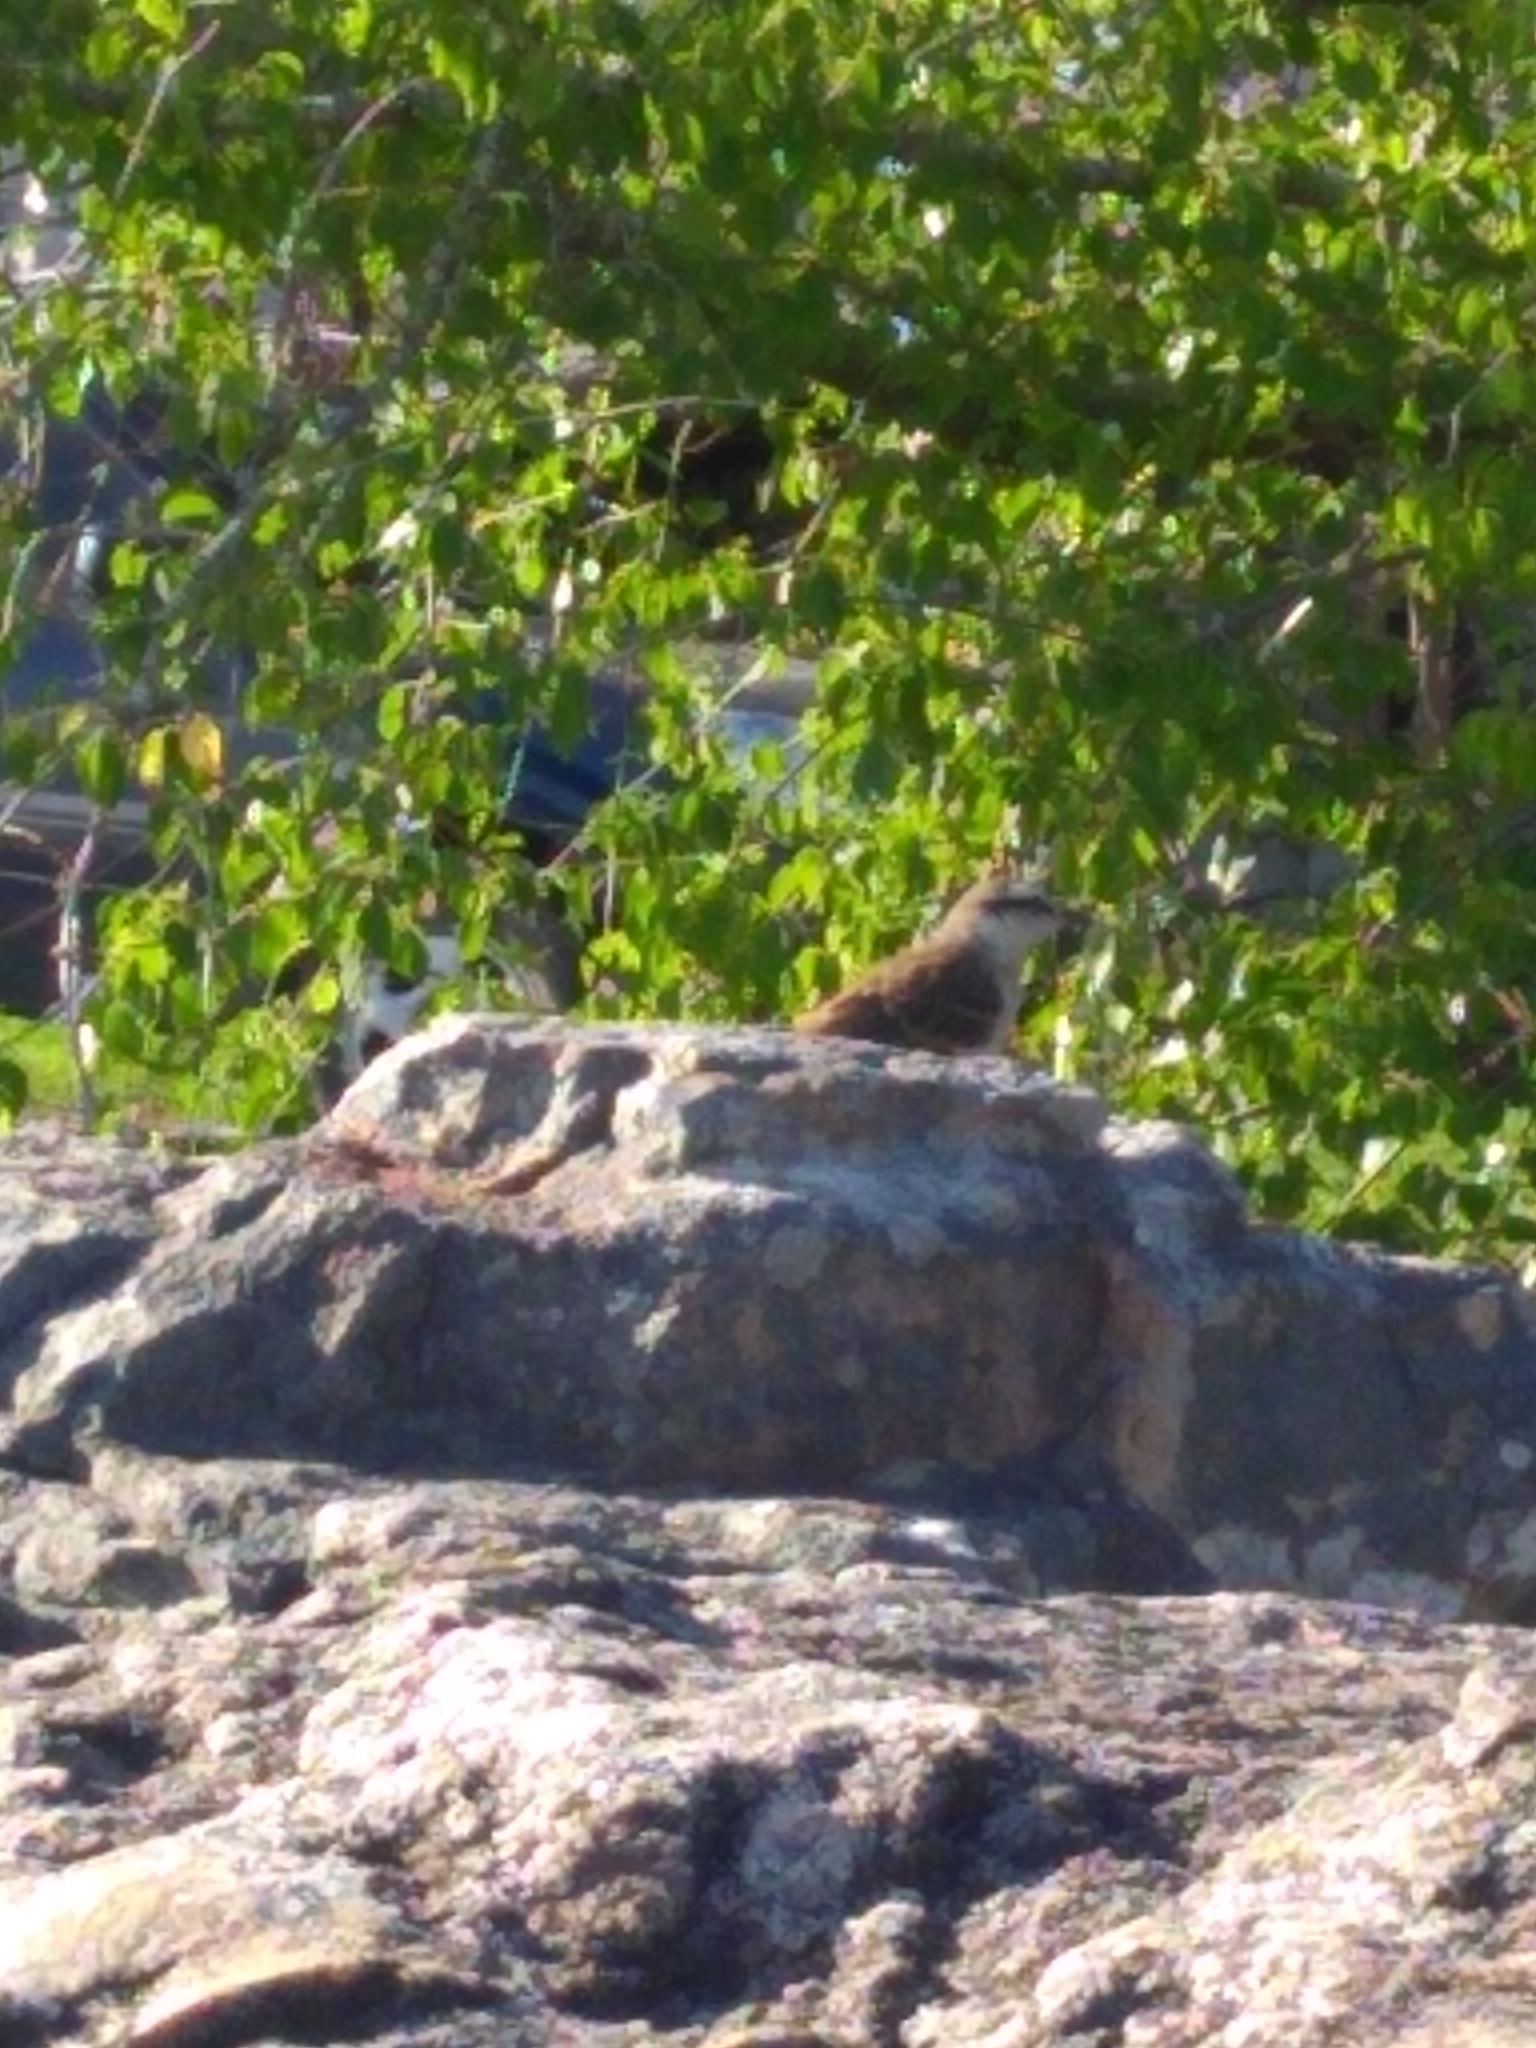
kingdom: Animalia
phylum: Chordata
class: Aves
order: Passeriformes
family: Mimidae
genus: Mimus
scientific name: Mimus saturninus
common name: Chalk-browed mockingbird
